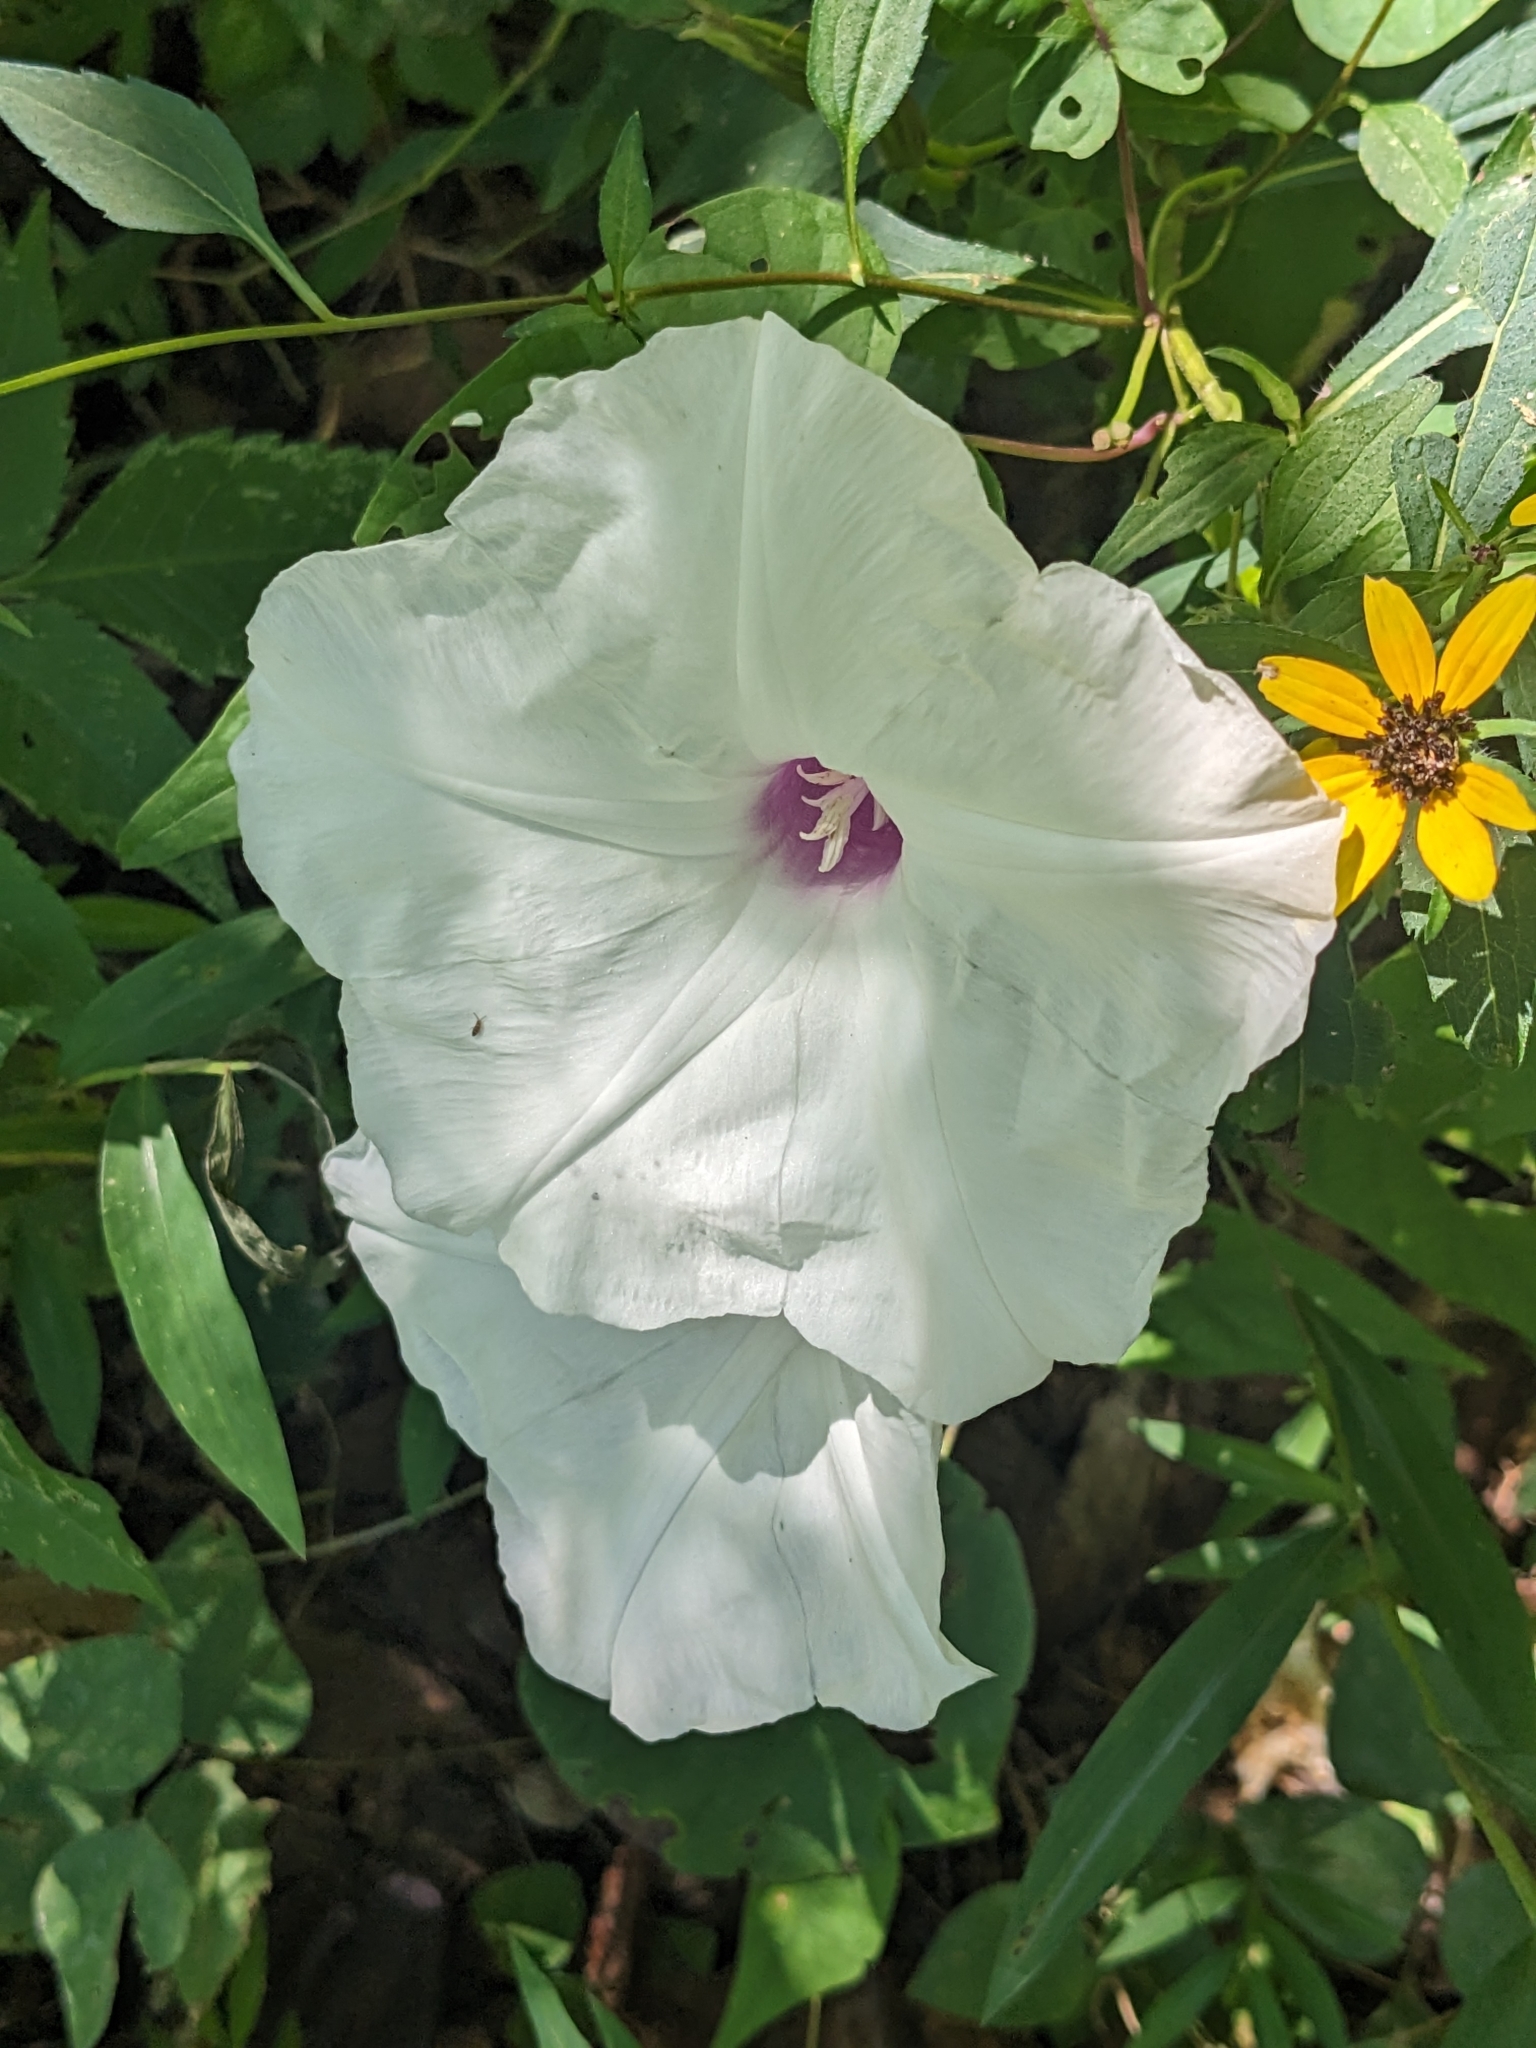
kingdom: Plantae
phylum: Tracheophyta
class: Magnoliopsida
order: Solanales
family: Convolvulaceae
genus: Ipomoea
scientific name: Ipomoea pandurata
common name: Man-of-the-earth
